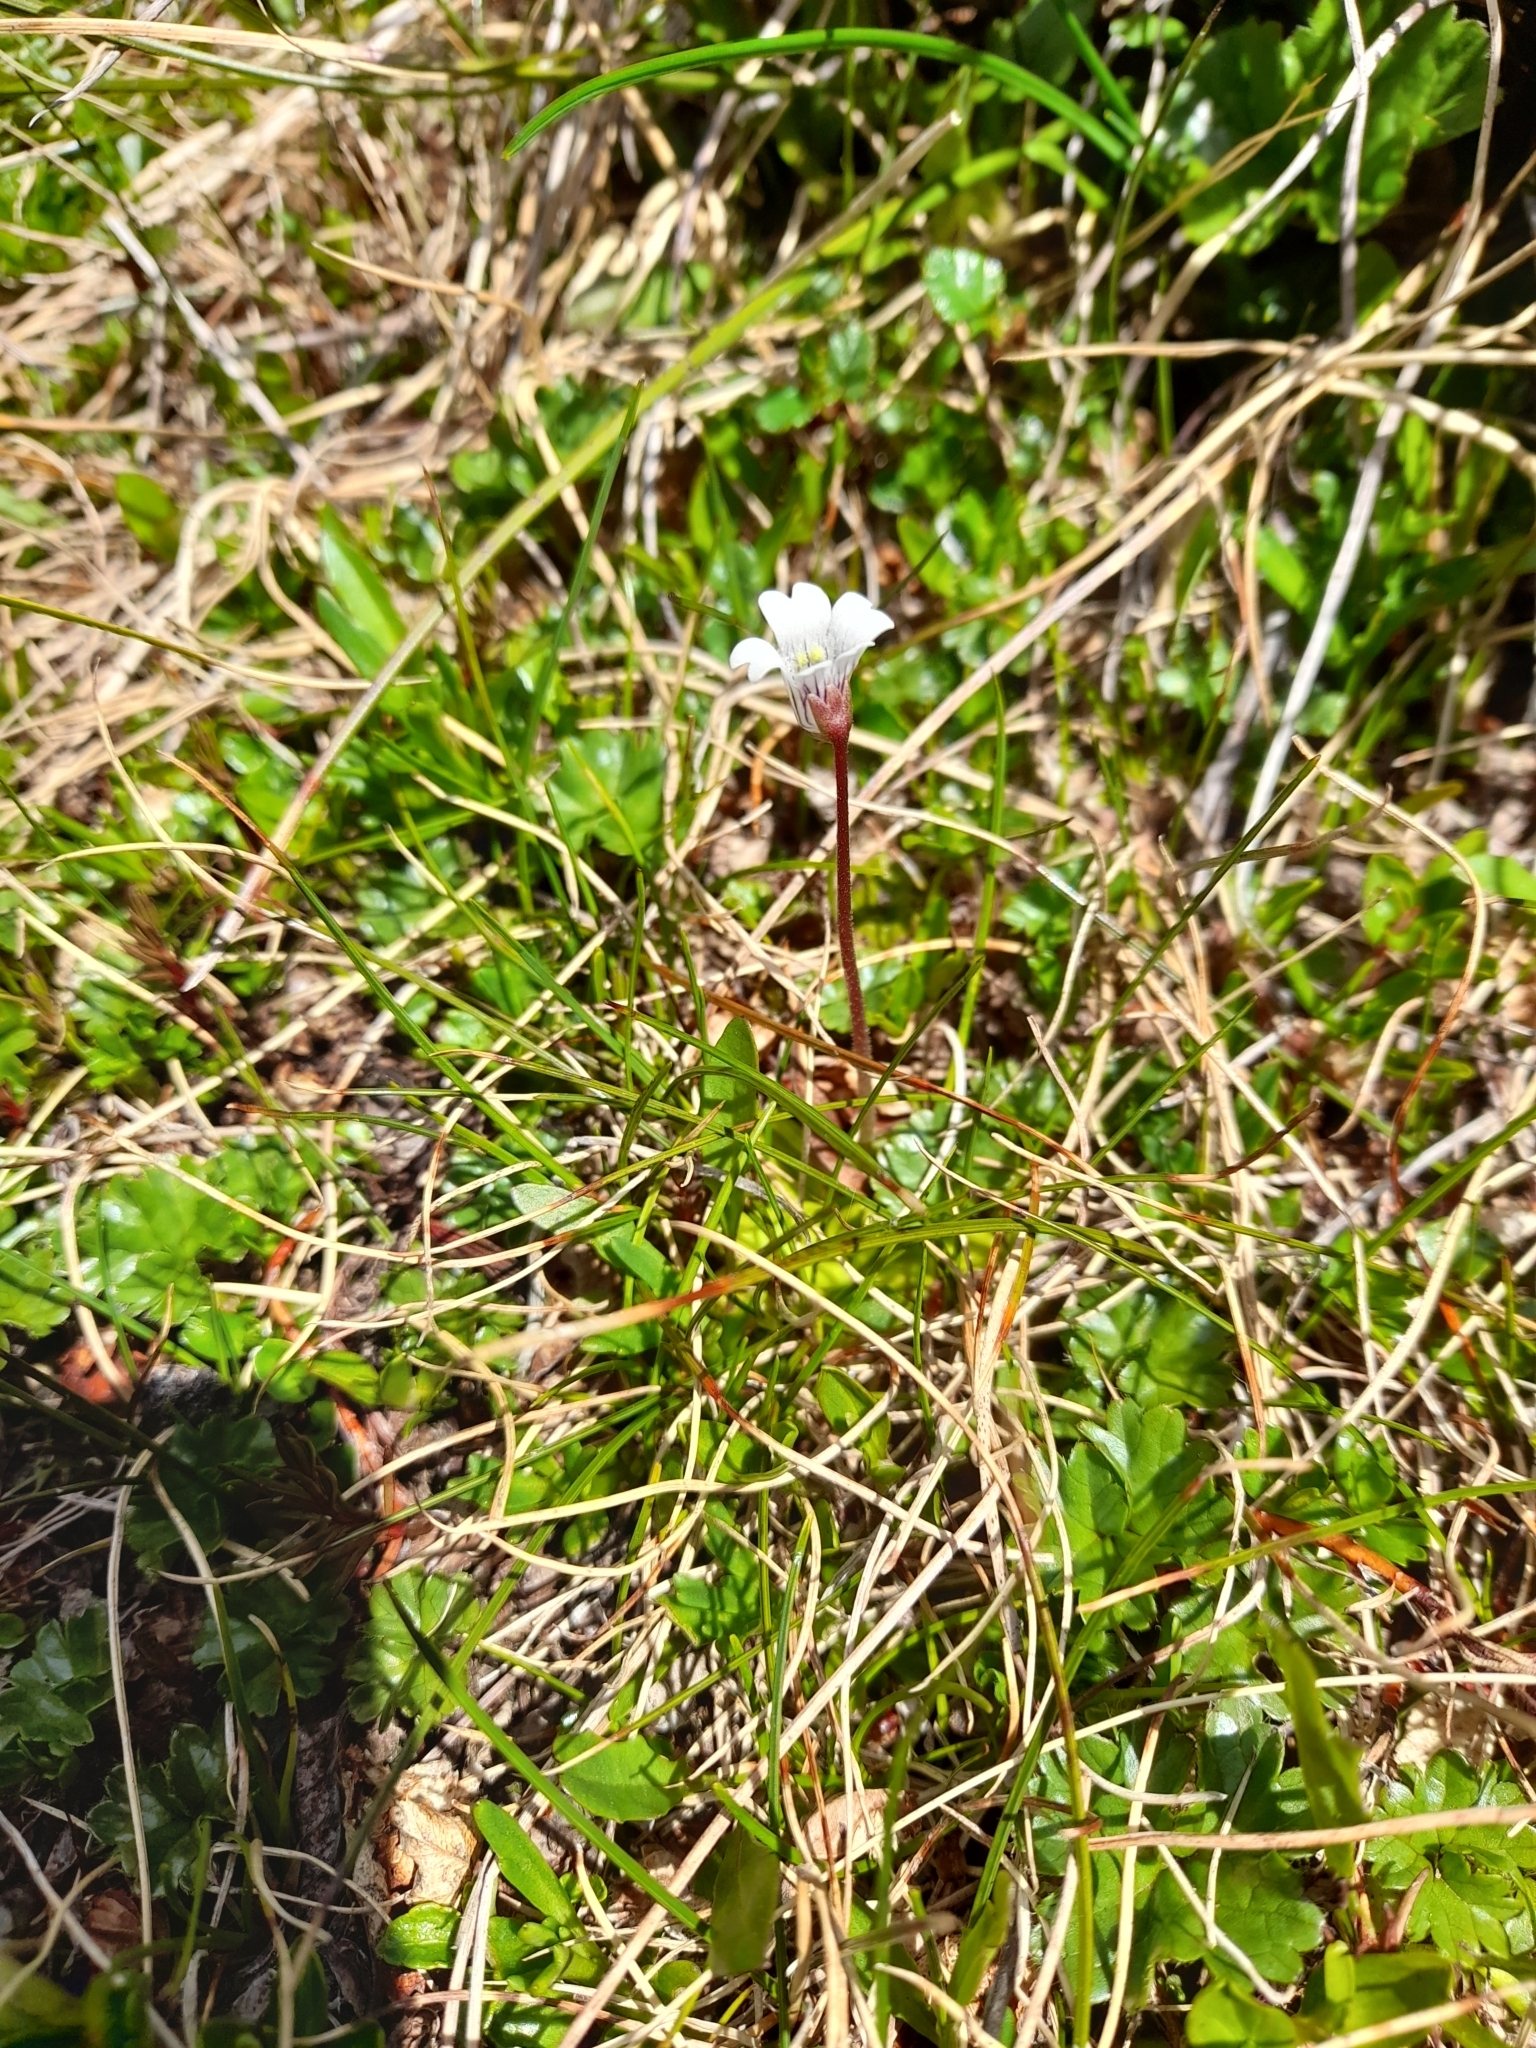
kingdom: Plantae
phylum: Tracheophyta
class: Magnoliopsida
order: Lamiales
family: Lentibulariaceae
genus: Pinguicula
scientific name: Pinguicula antarctica
